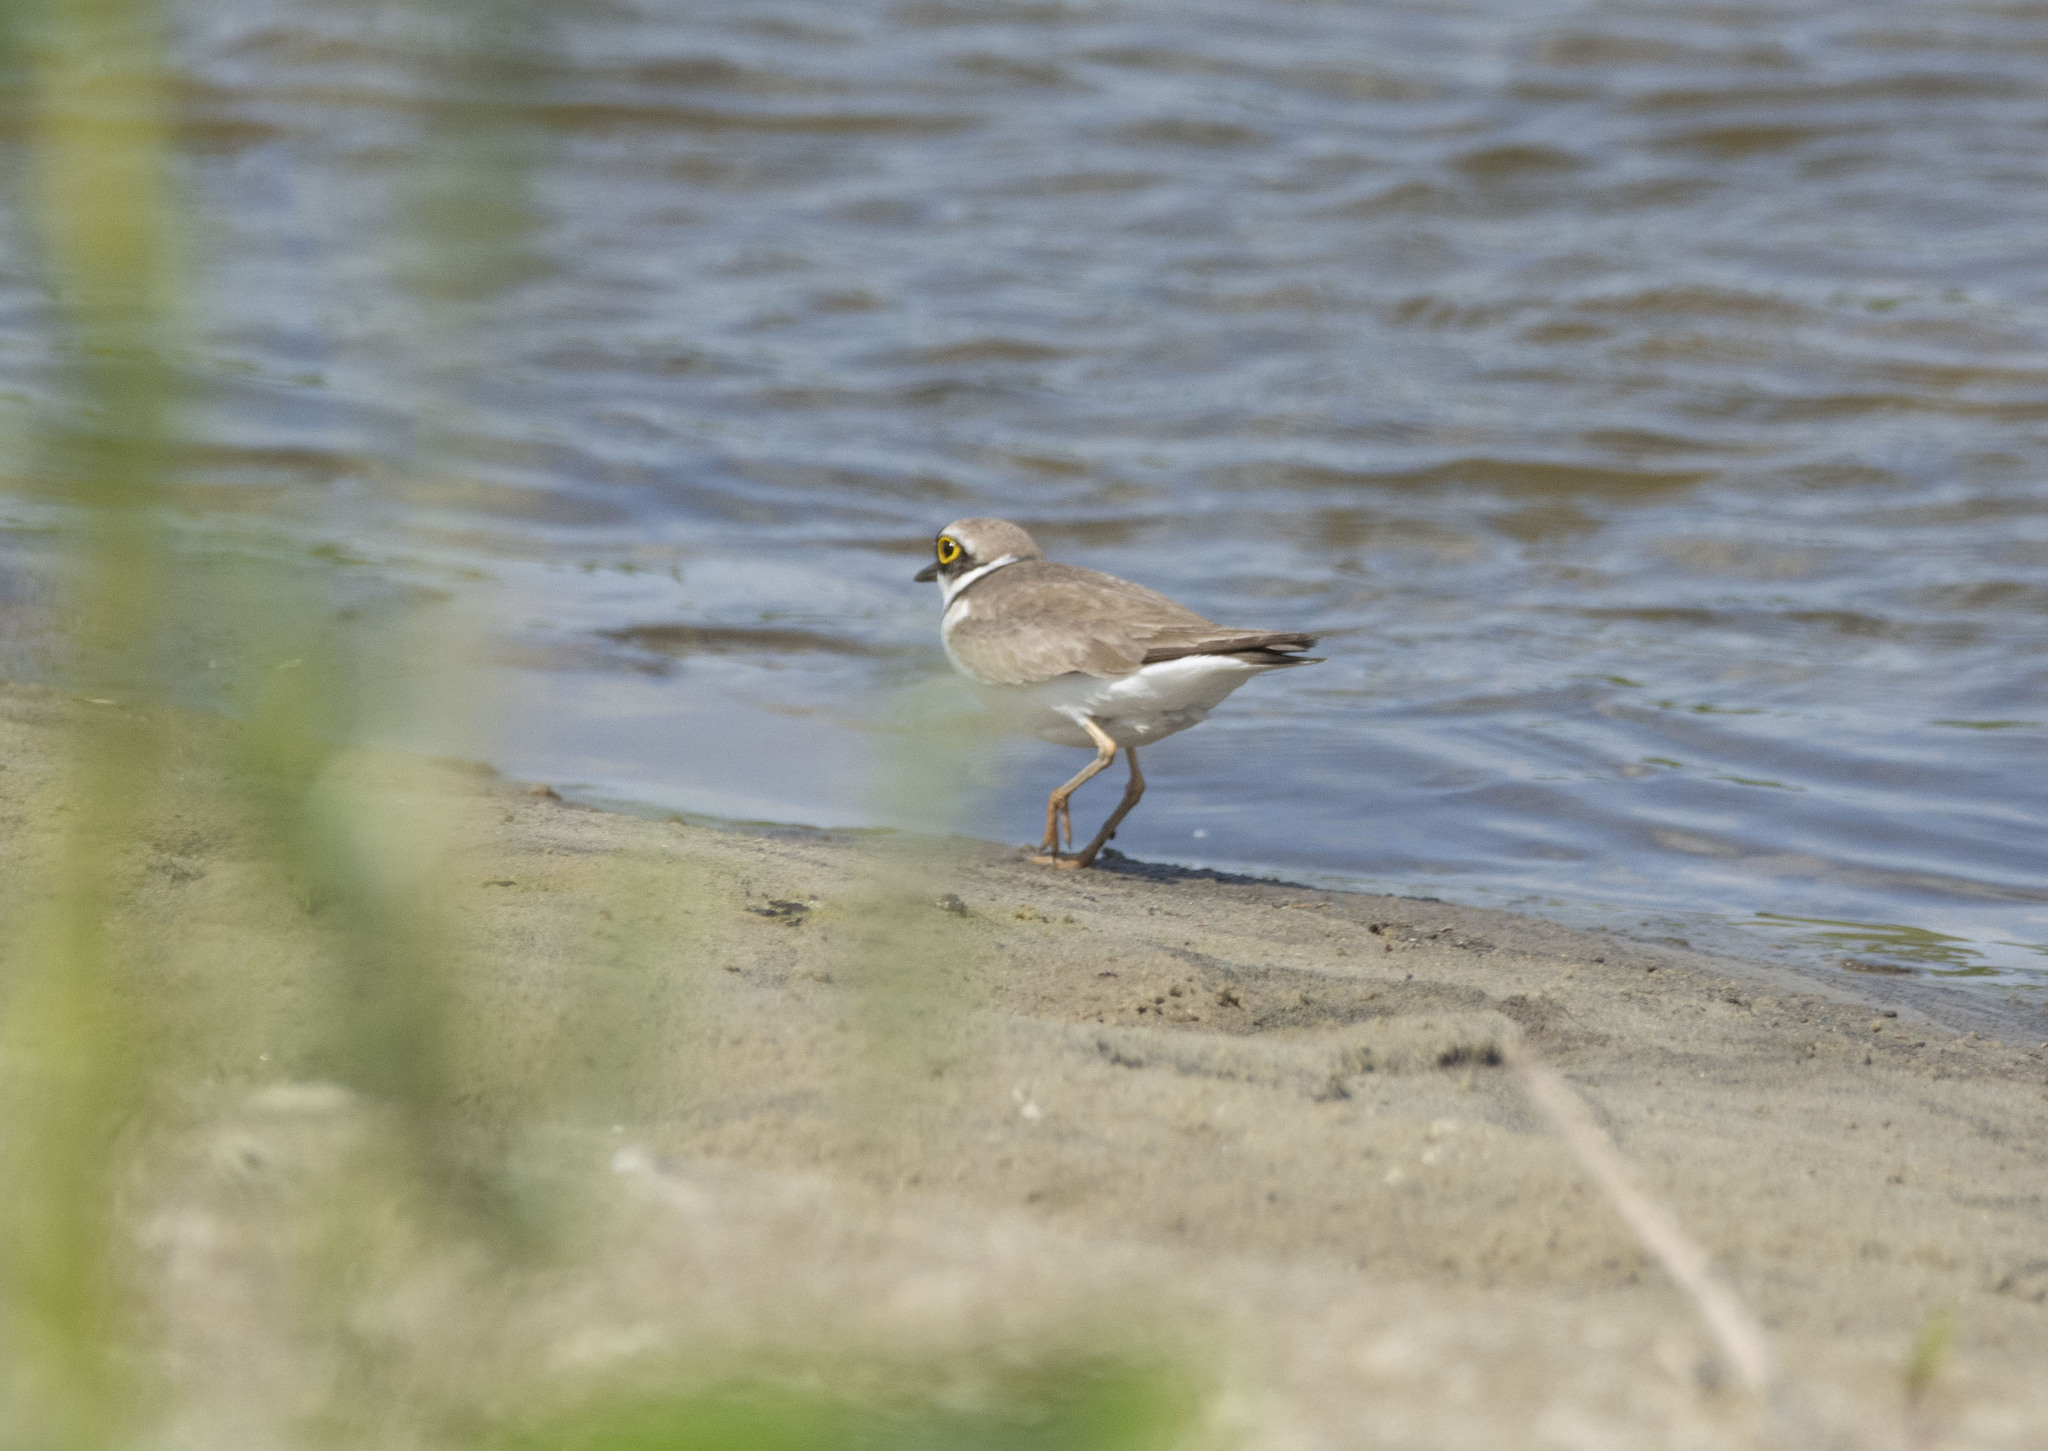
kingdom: Animalia
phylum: Chordata
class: Aves
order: Charadriiformes
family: Charadriidae
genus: Charadrius
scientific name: Charadrius dubius
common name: Little ringed plover
